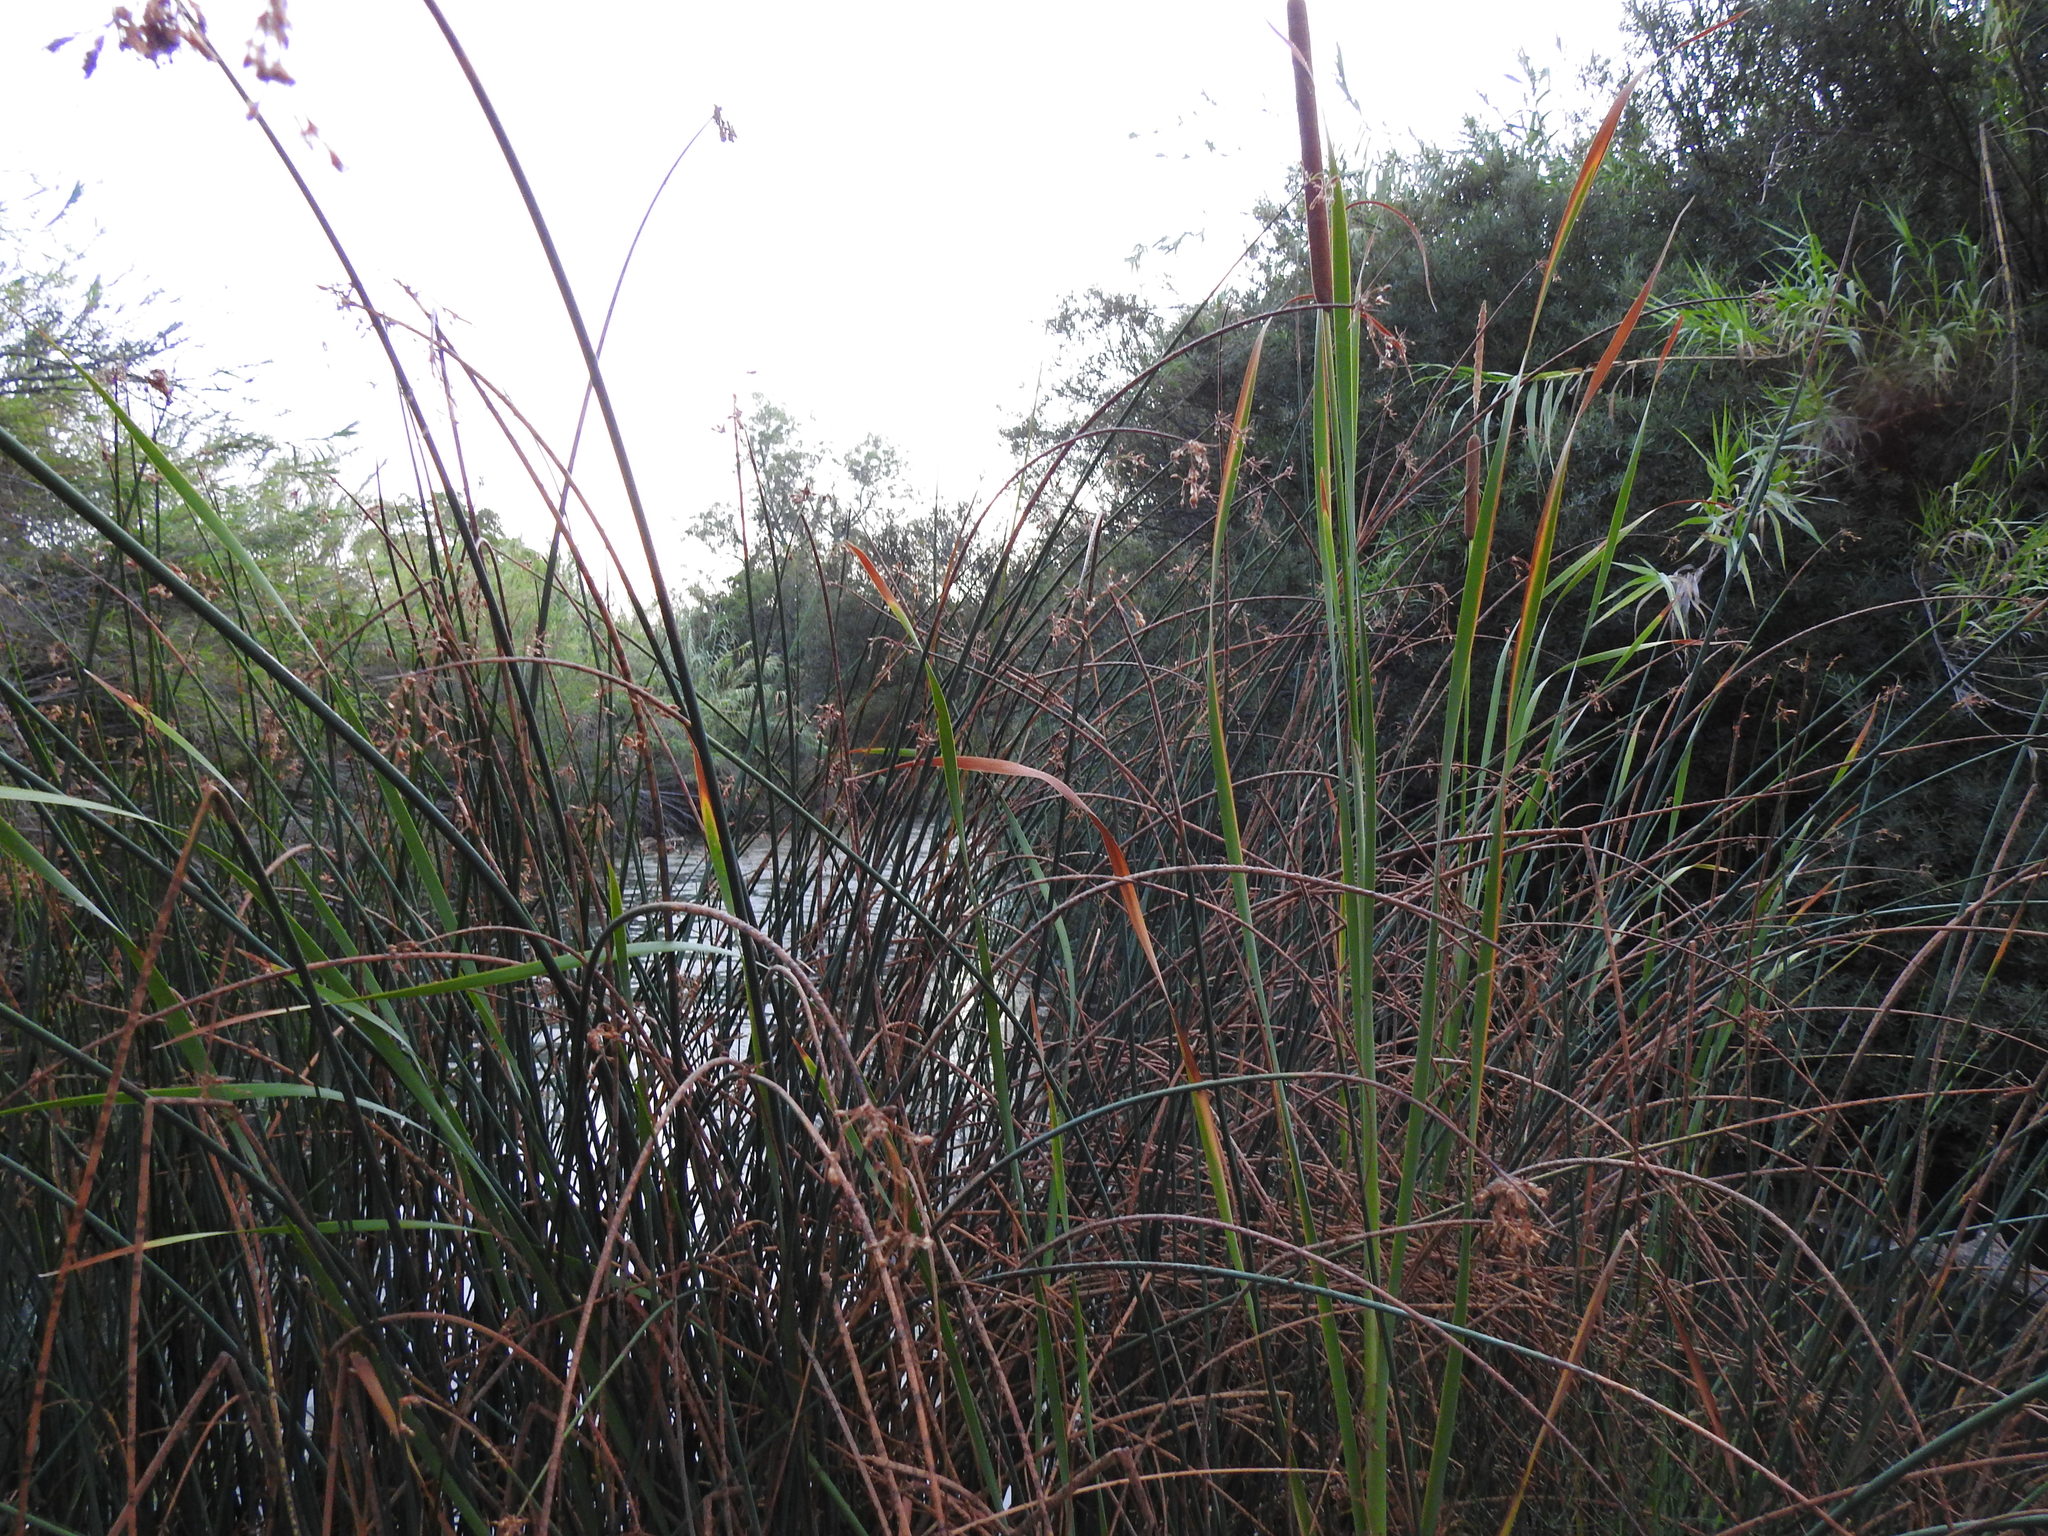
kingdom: Plantae
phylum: Tracheophyta
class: Liliopsida
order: Poales
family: Cyperaceae
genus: Schoenoplectus
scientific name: Schoenoplectus lacustris
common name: Common club-rush
